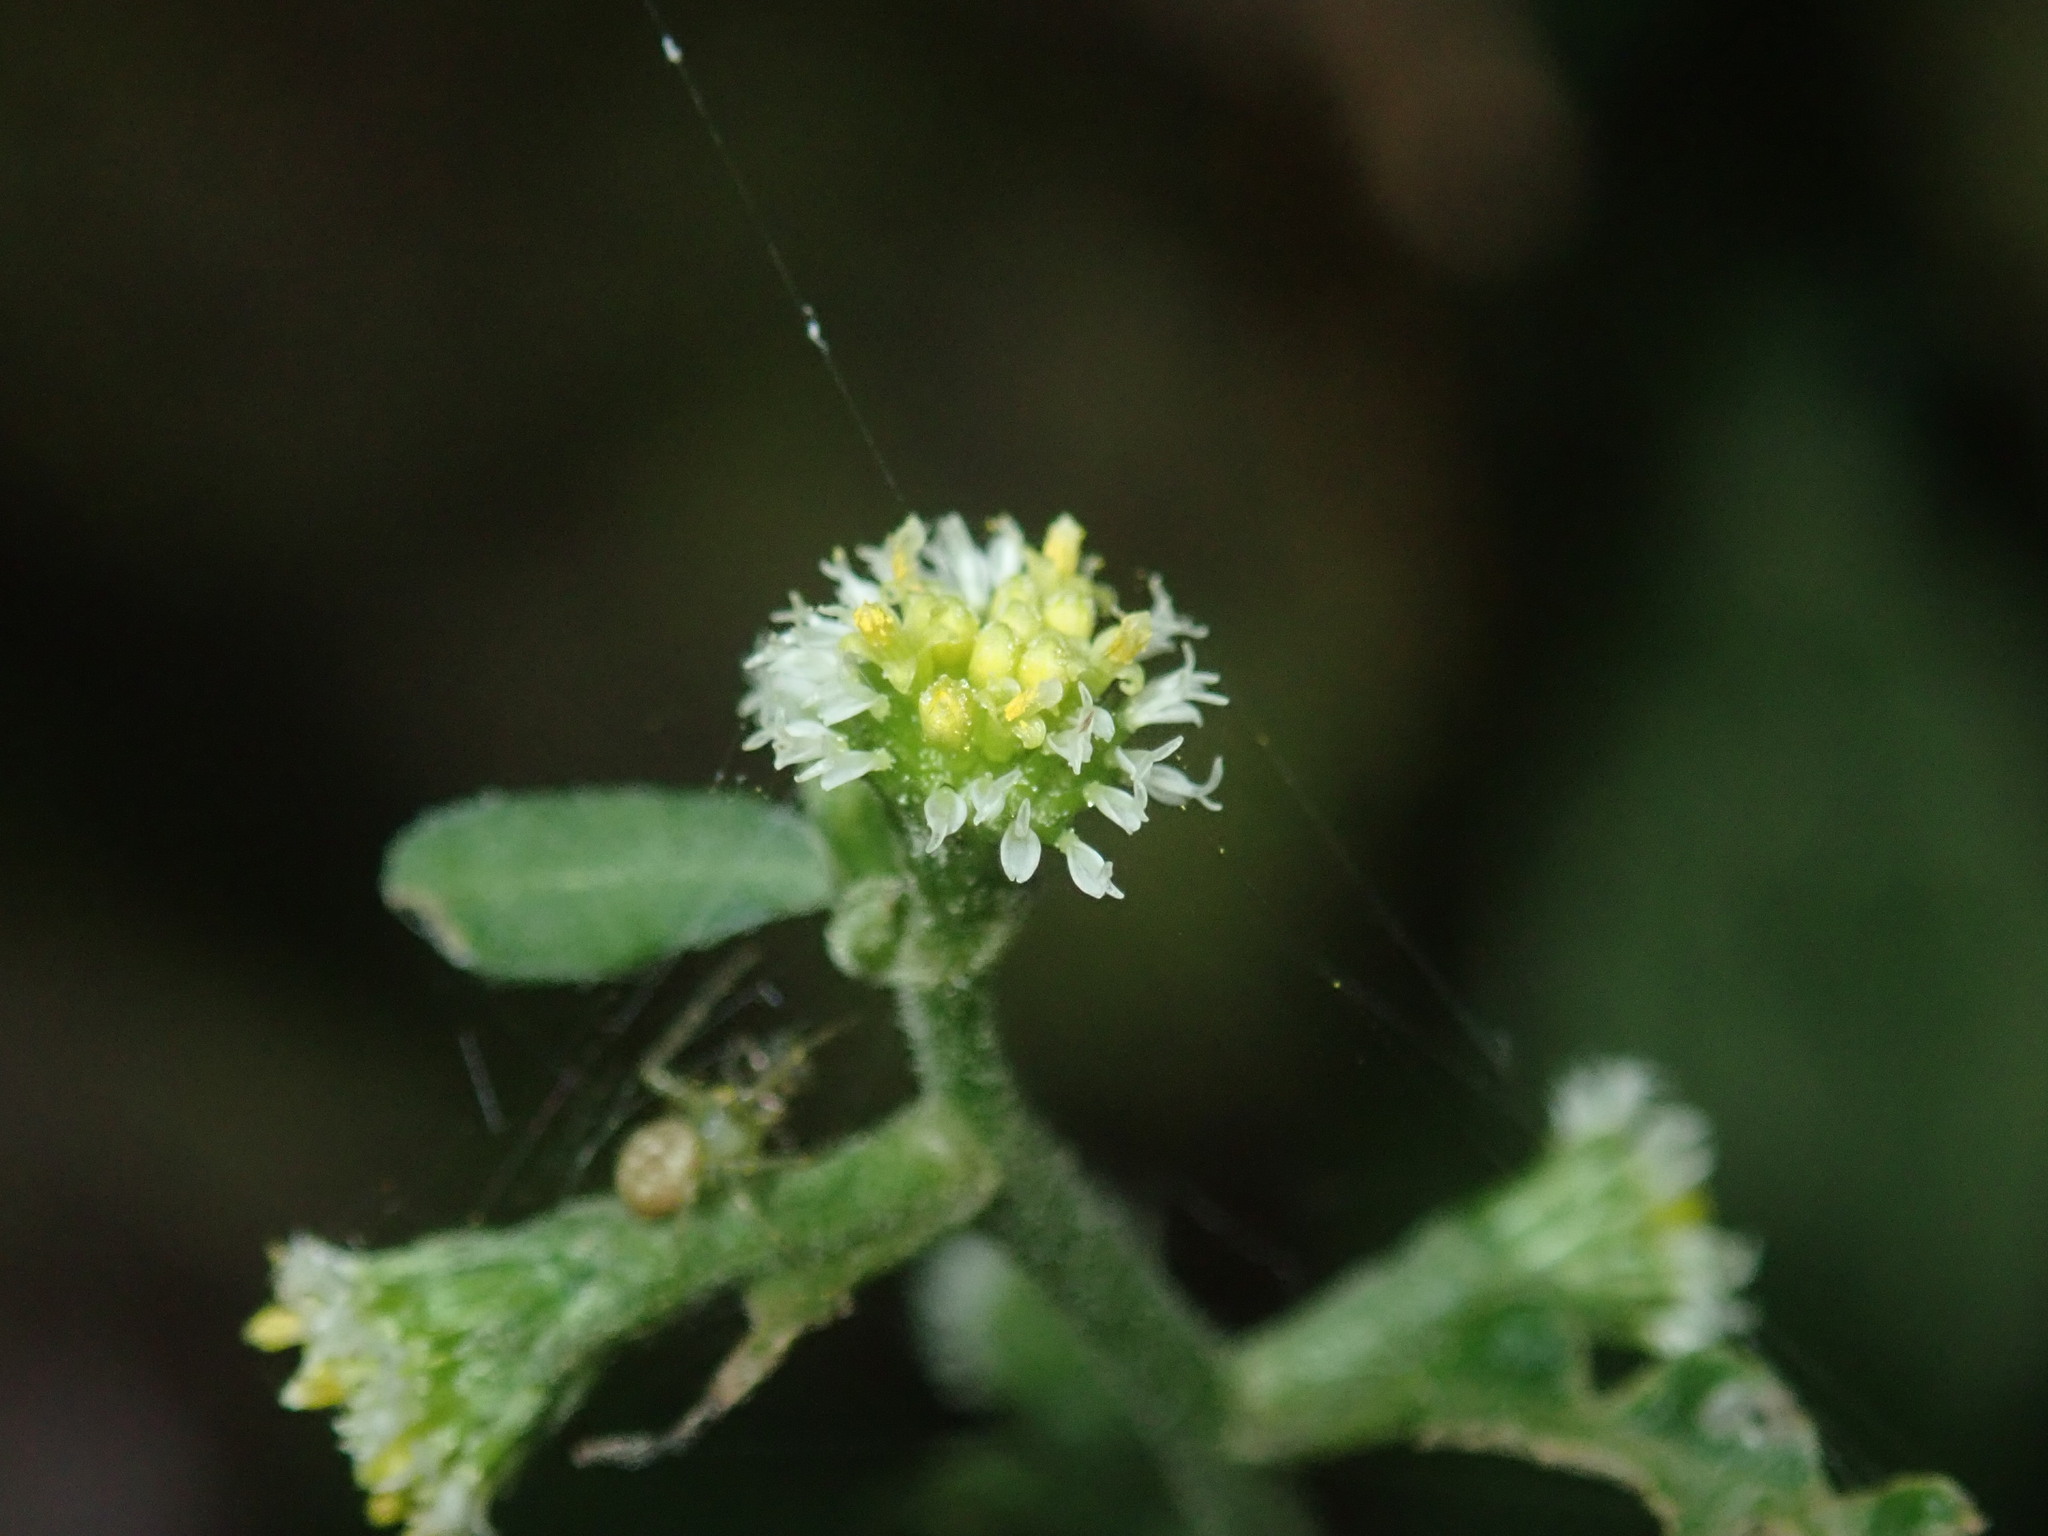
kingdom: Plantae
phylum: Tracheophyta
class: Magnoliopsida
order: Asterales
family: Asteraceae
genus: Rhynchospermum
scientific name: Rhynchospermum verticillatum
